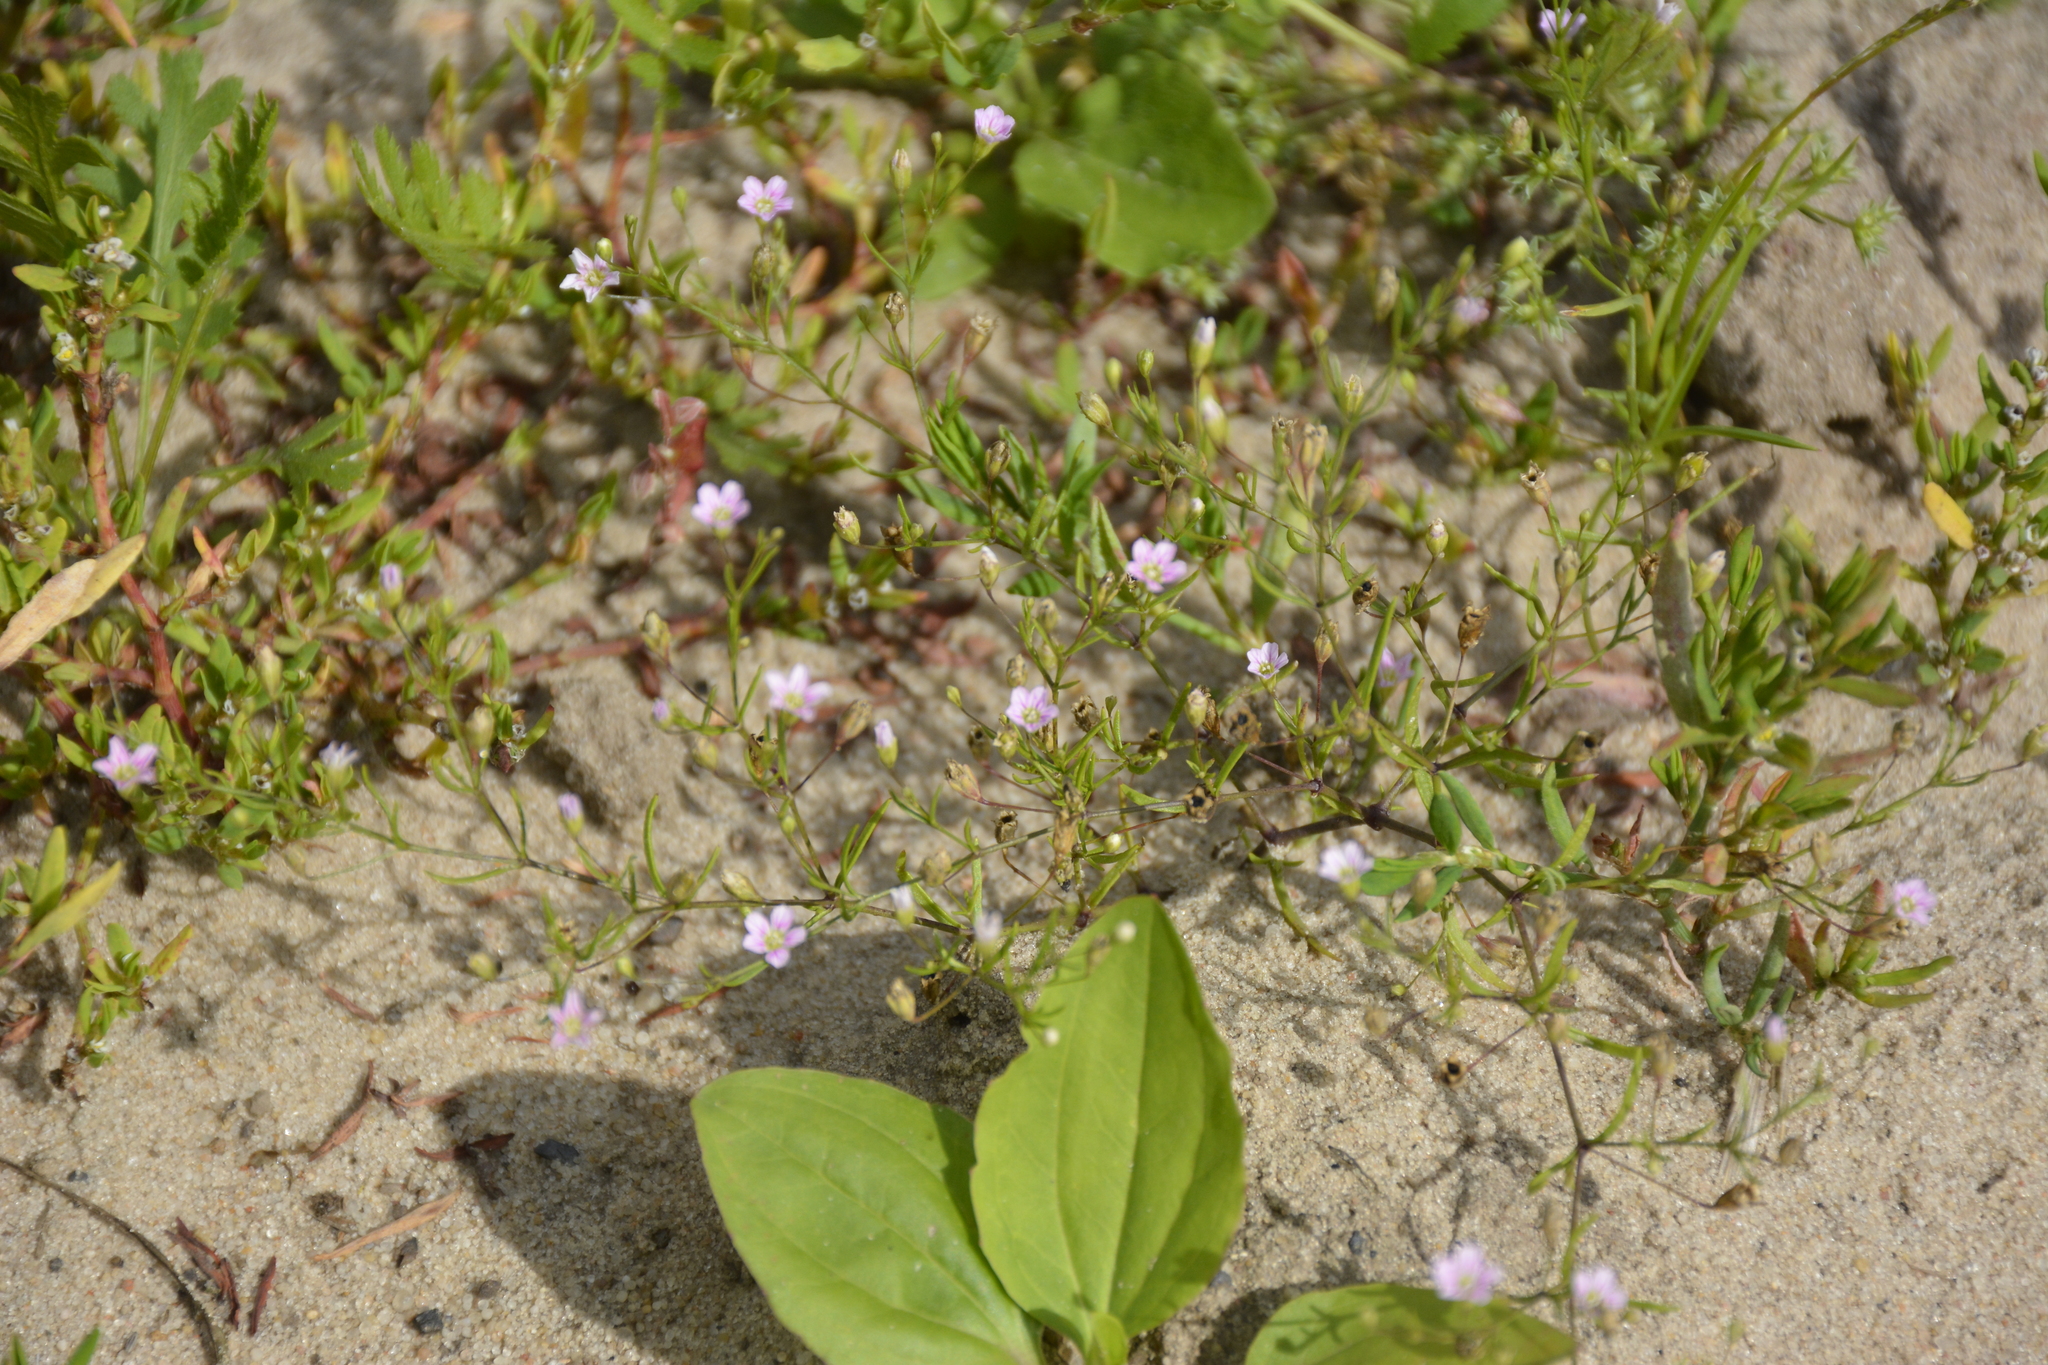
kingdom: Plantae
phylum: Tracheophyta
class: Magnoliopsida
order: Caryophyllales
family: Caryophyllaceae
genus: Psammophiliella
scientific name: Psammophiliella muralis
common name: Cushion baby's-breath
